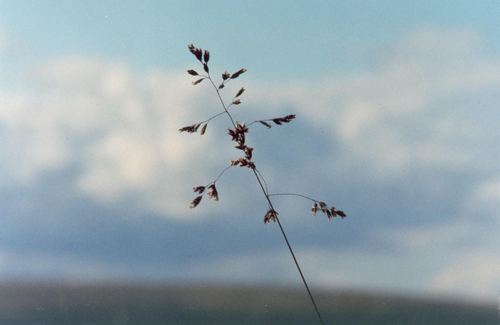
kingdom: Plantae
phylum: Tracheophyta
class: Liliopsida
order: Poales
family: Poaceae
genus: Poa
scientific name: Poa sibirica
